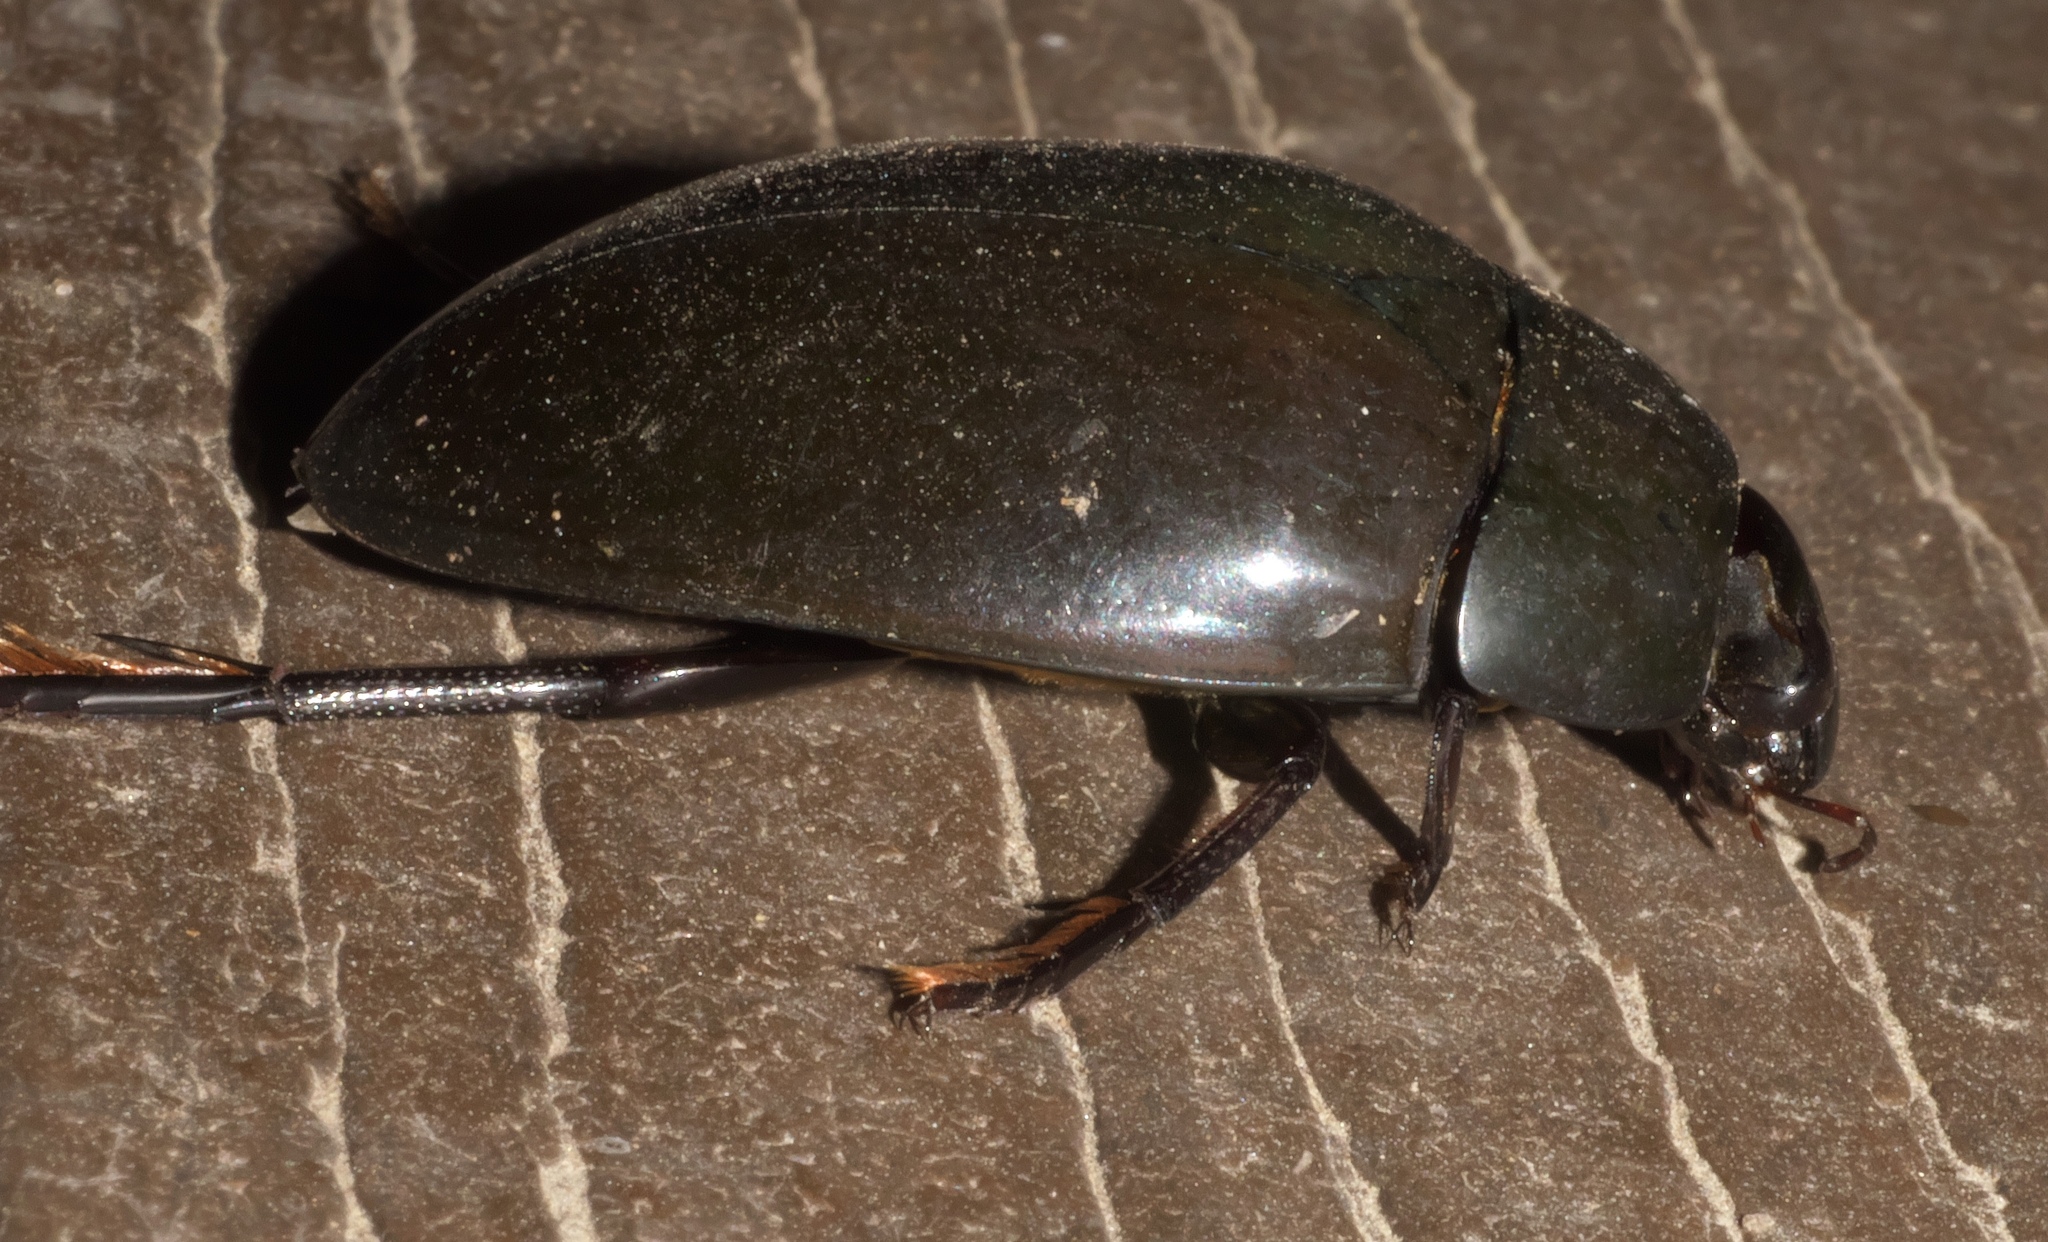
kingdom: Animalia
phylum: Arthropoda
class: Insecta
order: Coleoptera
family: Hydrophilidae
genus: Hydrophilus
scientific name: Hydrophilus ovatus
